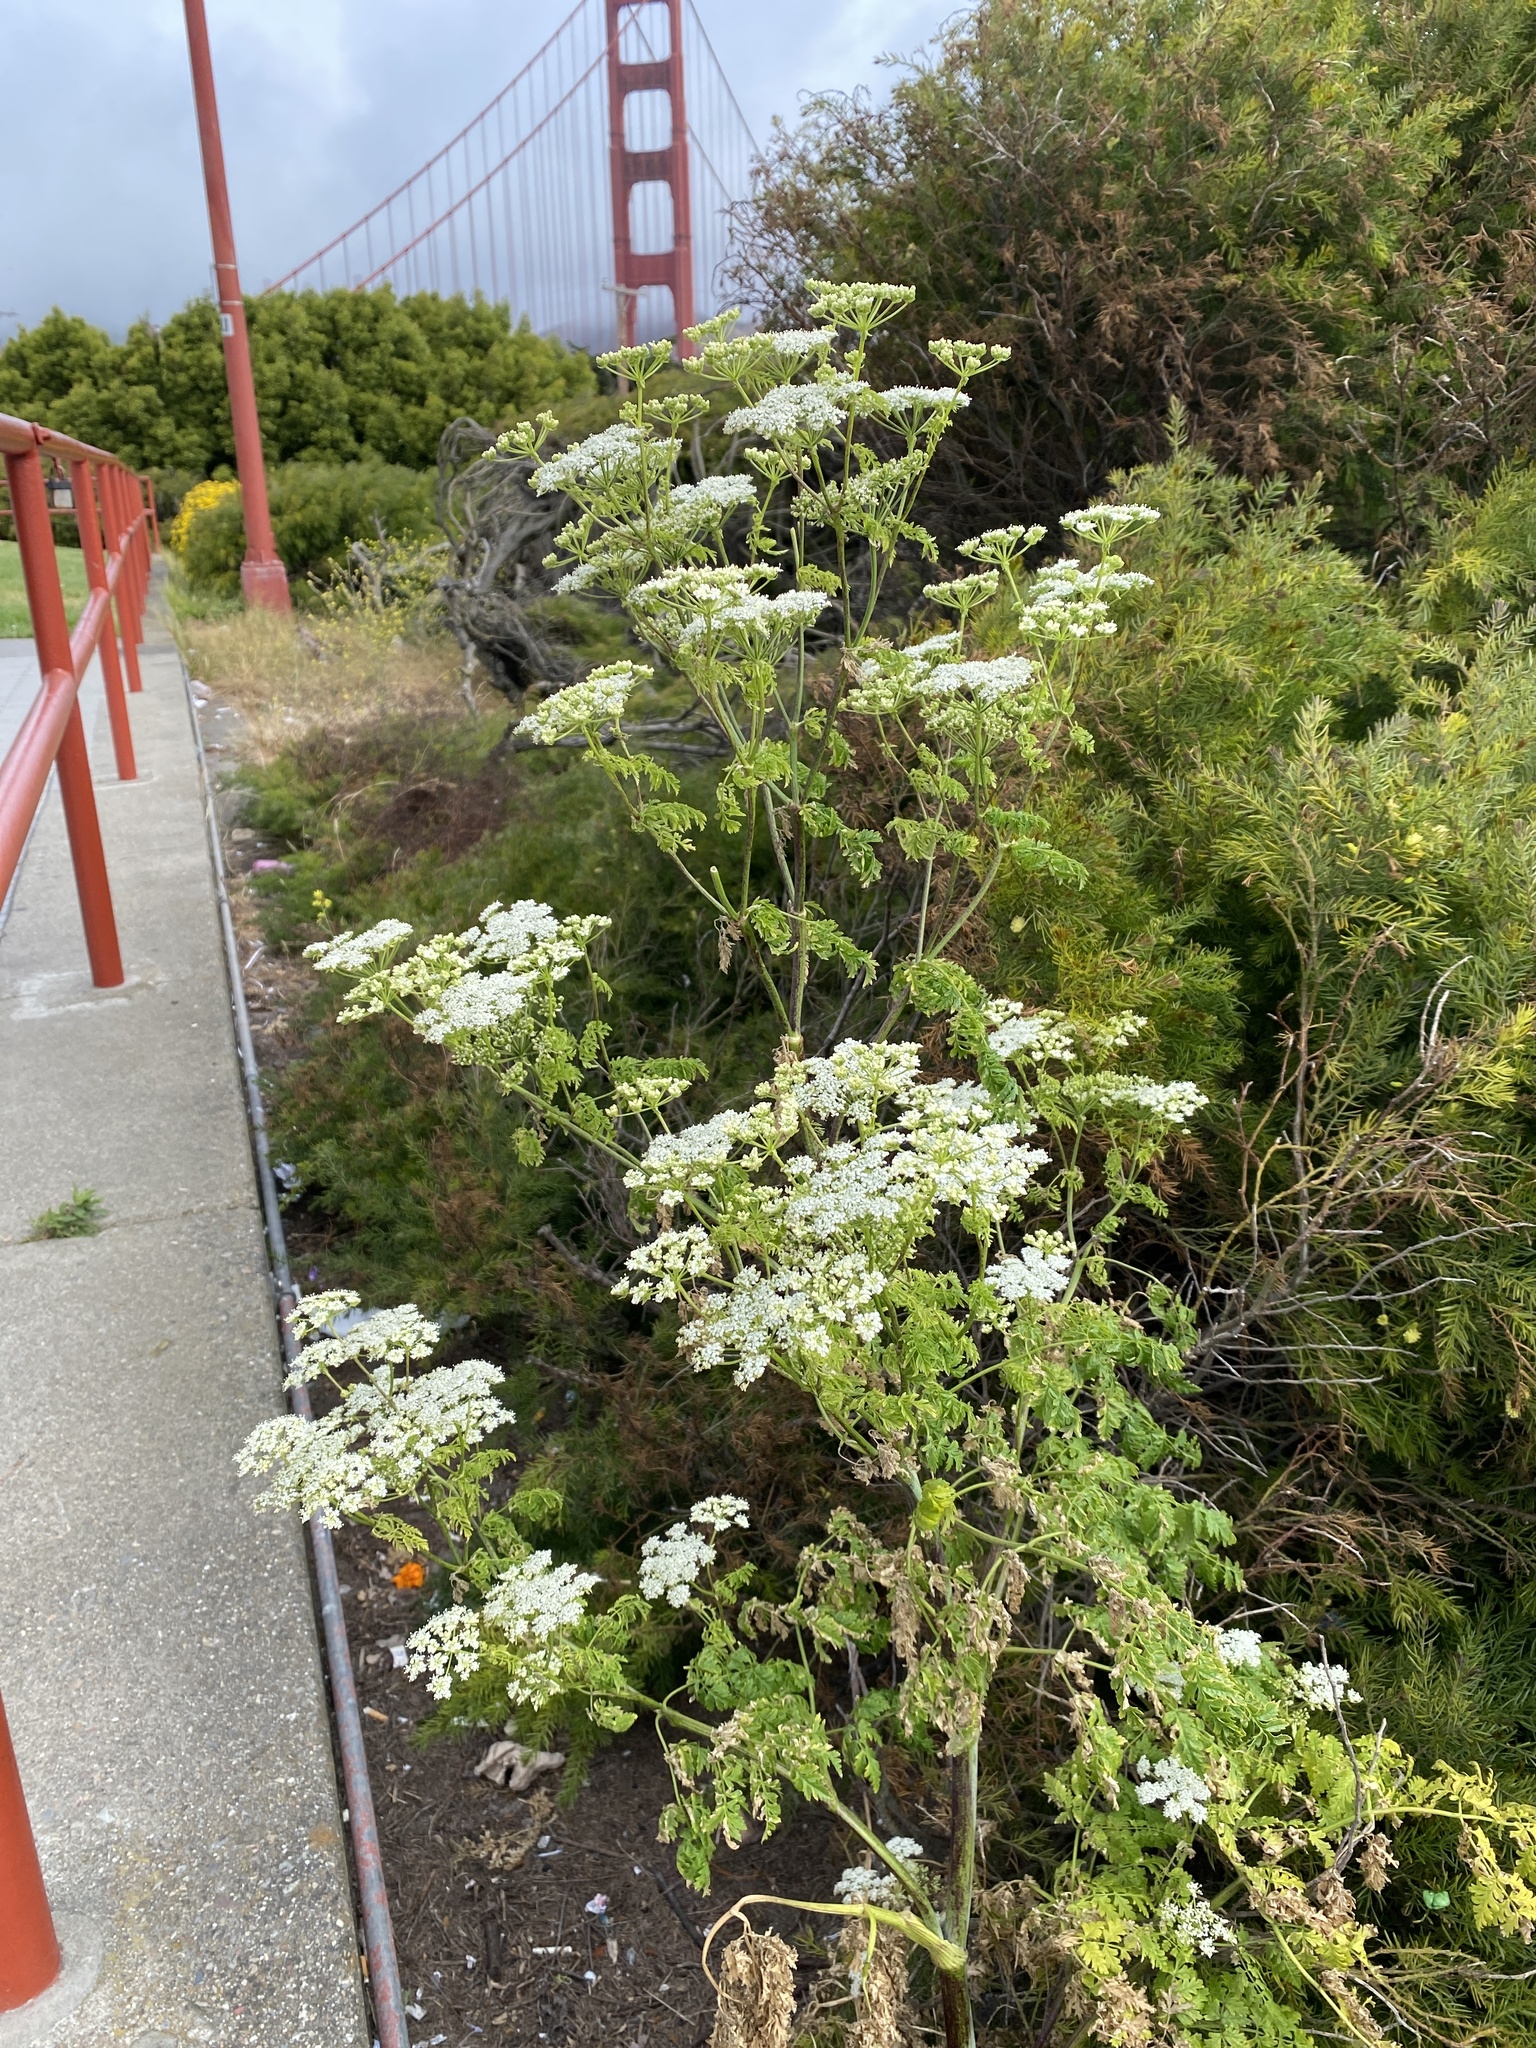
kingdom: Plantae
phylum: Tracheophyta
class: Magnoliopsida
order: Apiales
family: Apiaceae
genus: Conium
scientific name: Conium maculatum
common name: Hemlock
